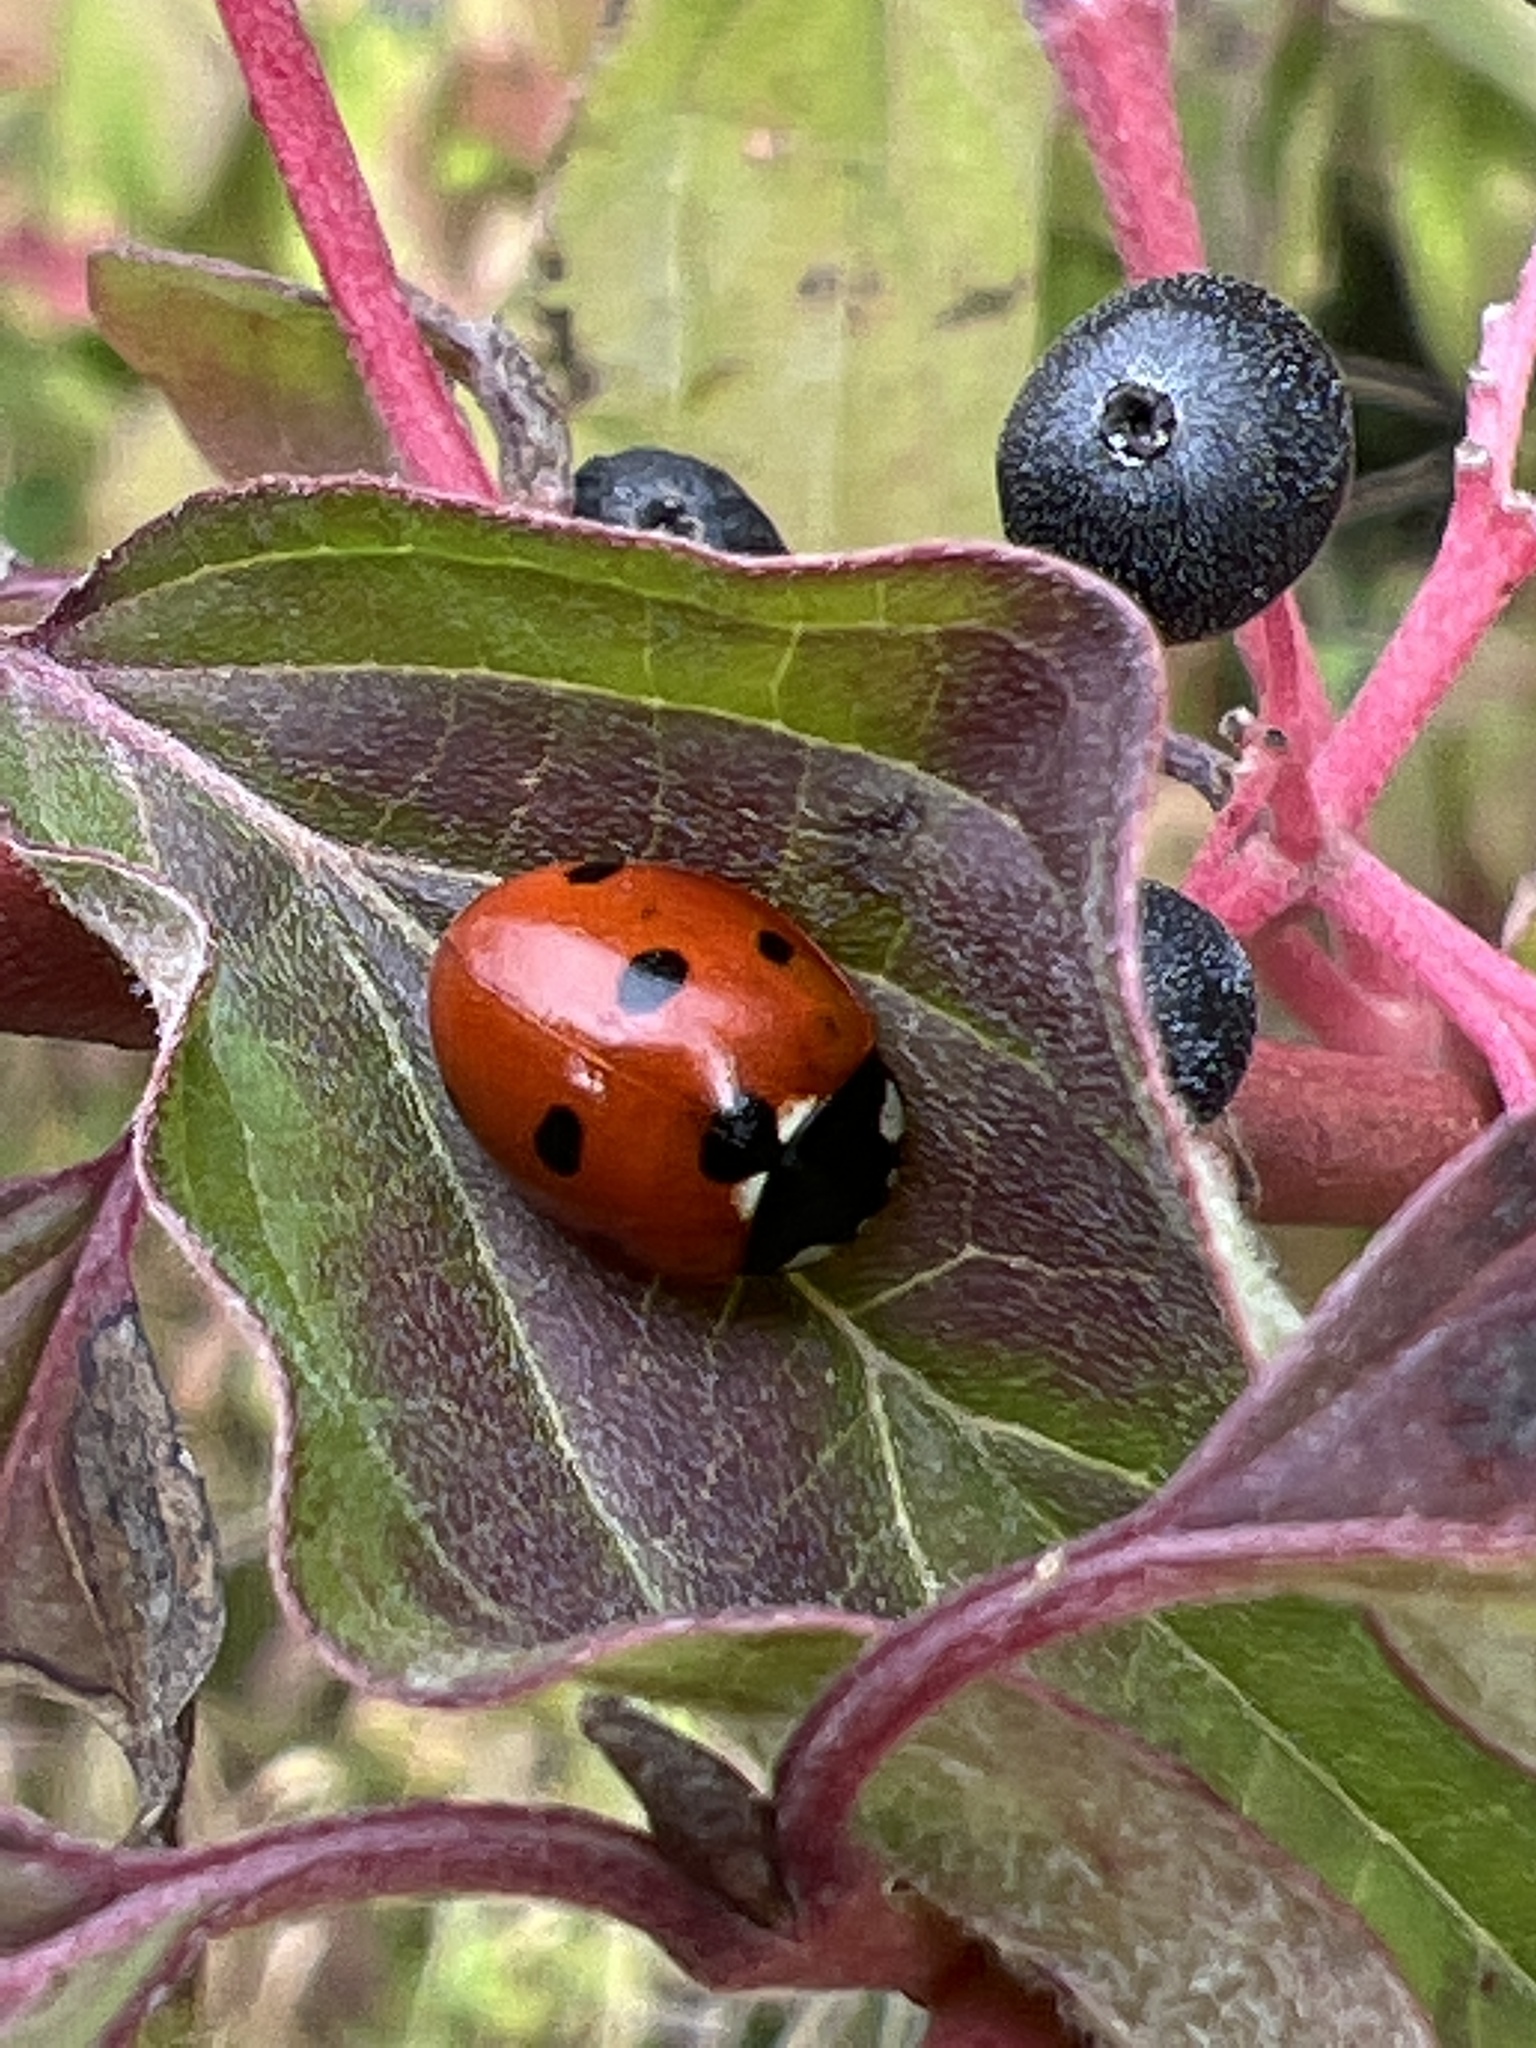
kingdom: Animalia
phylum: Arthropoda
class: Insecta
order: Coleoptera
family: Coccinellidae
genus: Coccinella
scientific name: Coccinella septempunctata
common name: Sevenspotted lady beetle
